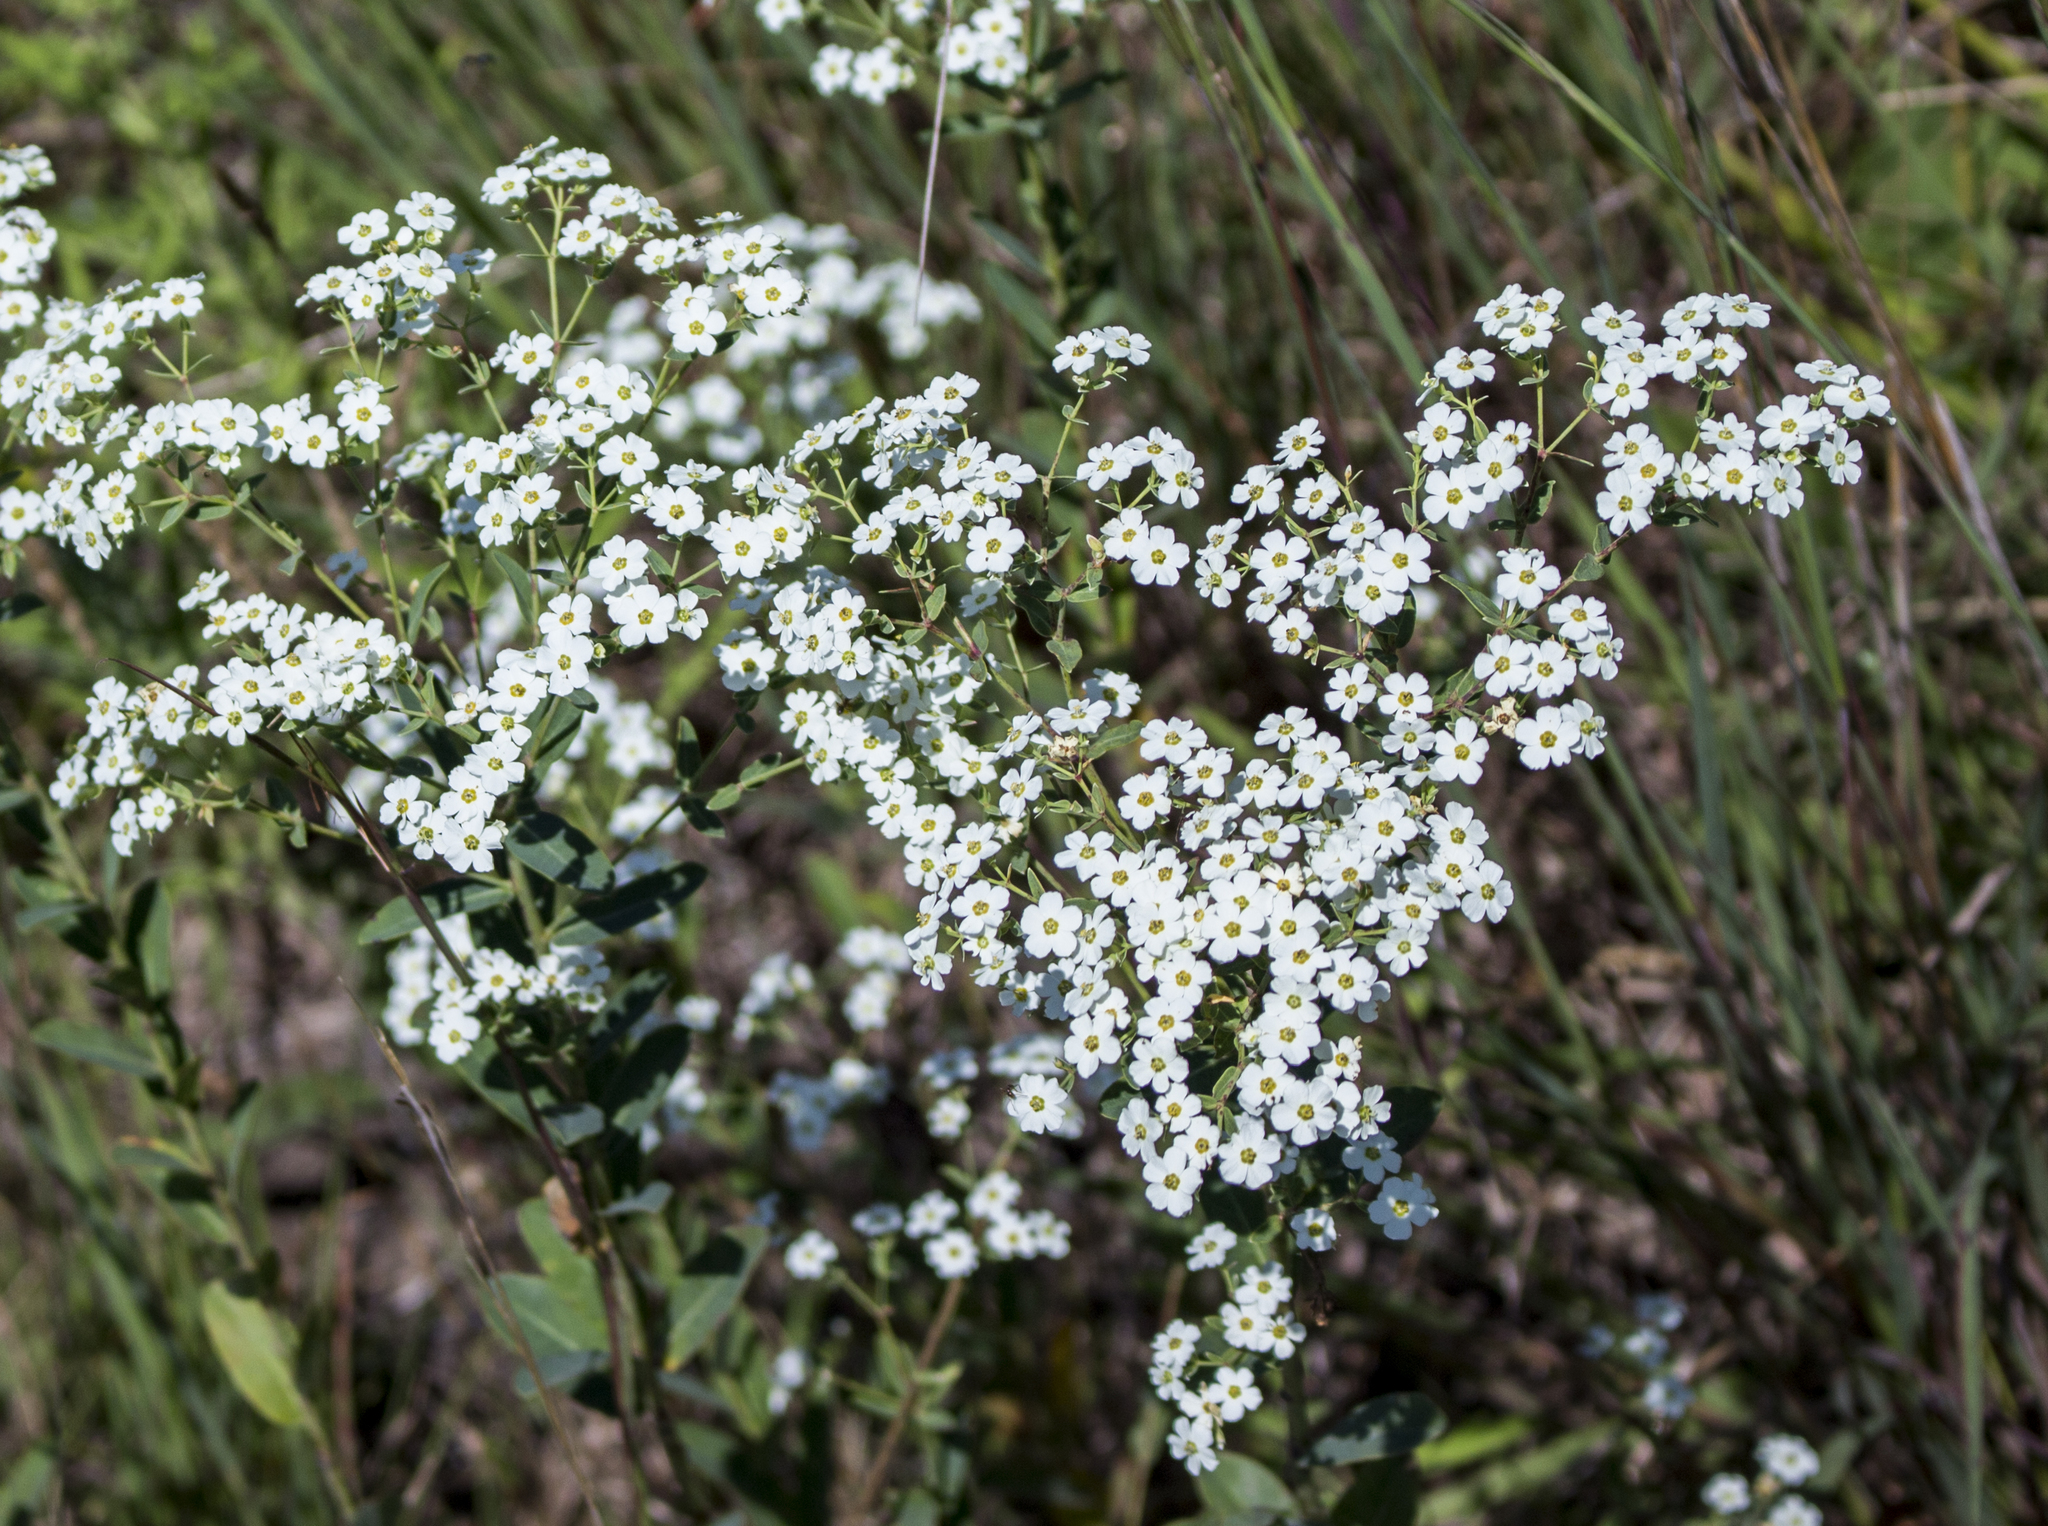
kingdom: Plantae
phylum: Tracheophyta
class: Magnoliopsida
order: Malpighiales
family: Euphorbiaceae
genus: Euphorbia
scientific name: Euphorbia corollata
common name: Flowering spurge
